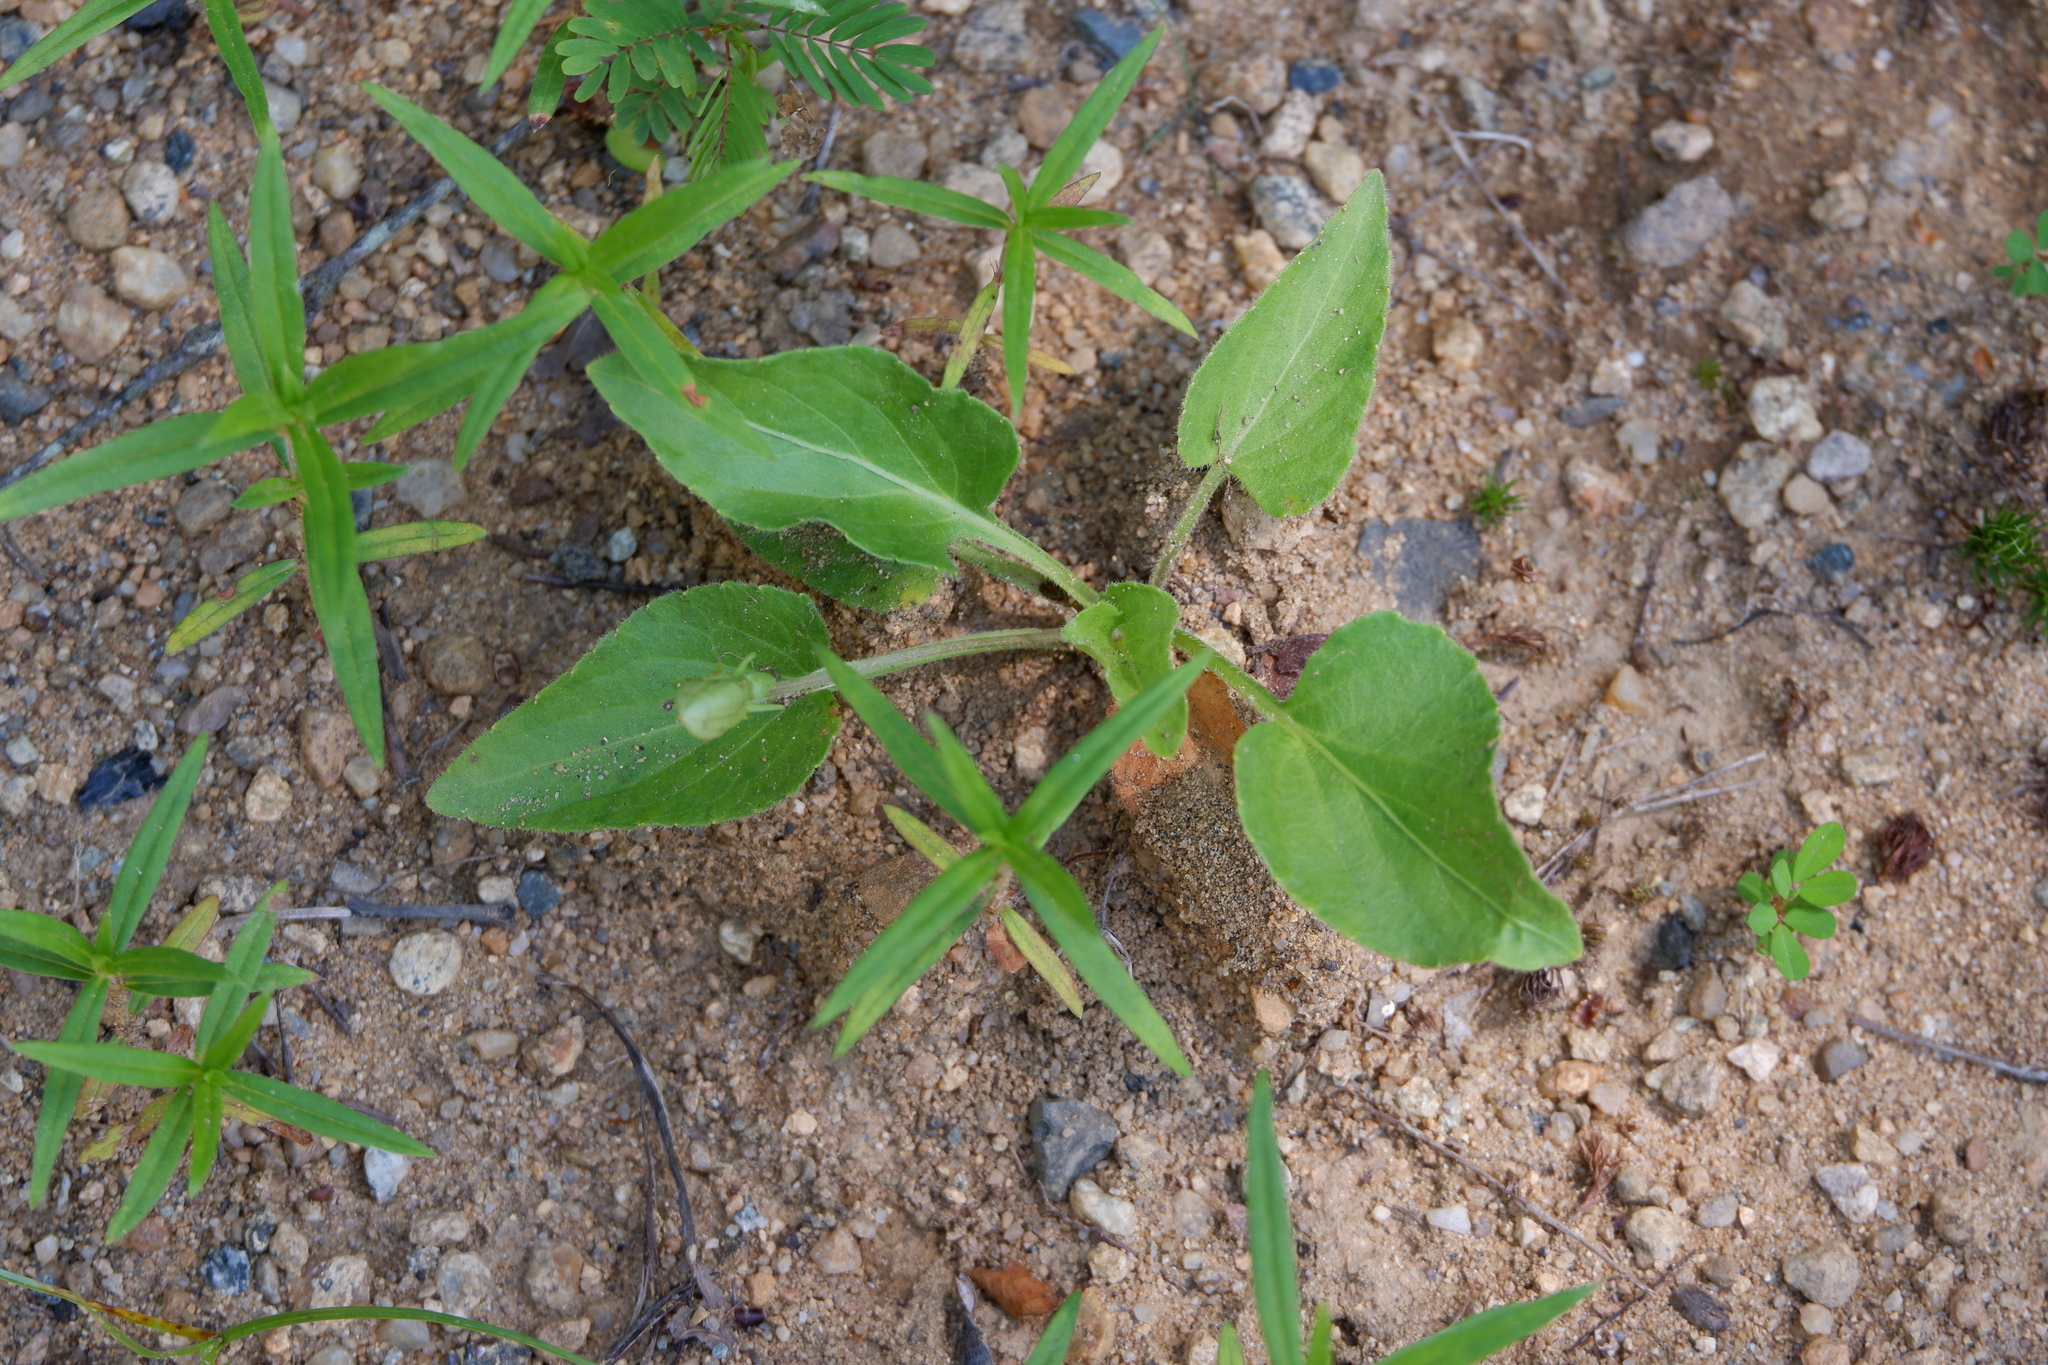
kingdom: Plantae
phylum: Tracheophyta
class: Magnoliopsida
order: Malpighiales
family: Violaceae
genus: Viola
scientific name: Viola fimbriatula
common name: Sand violet
